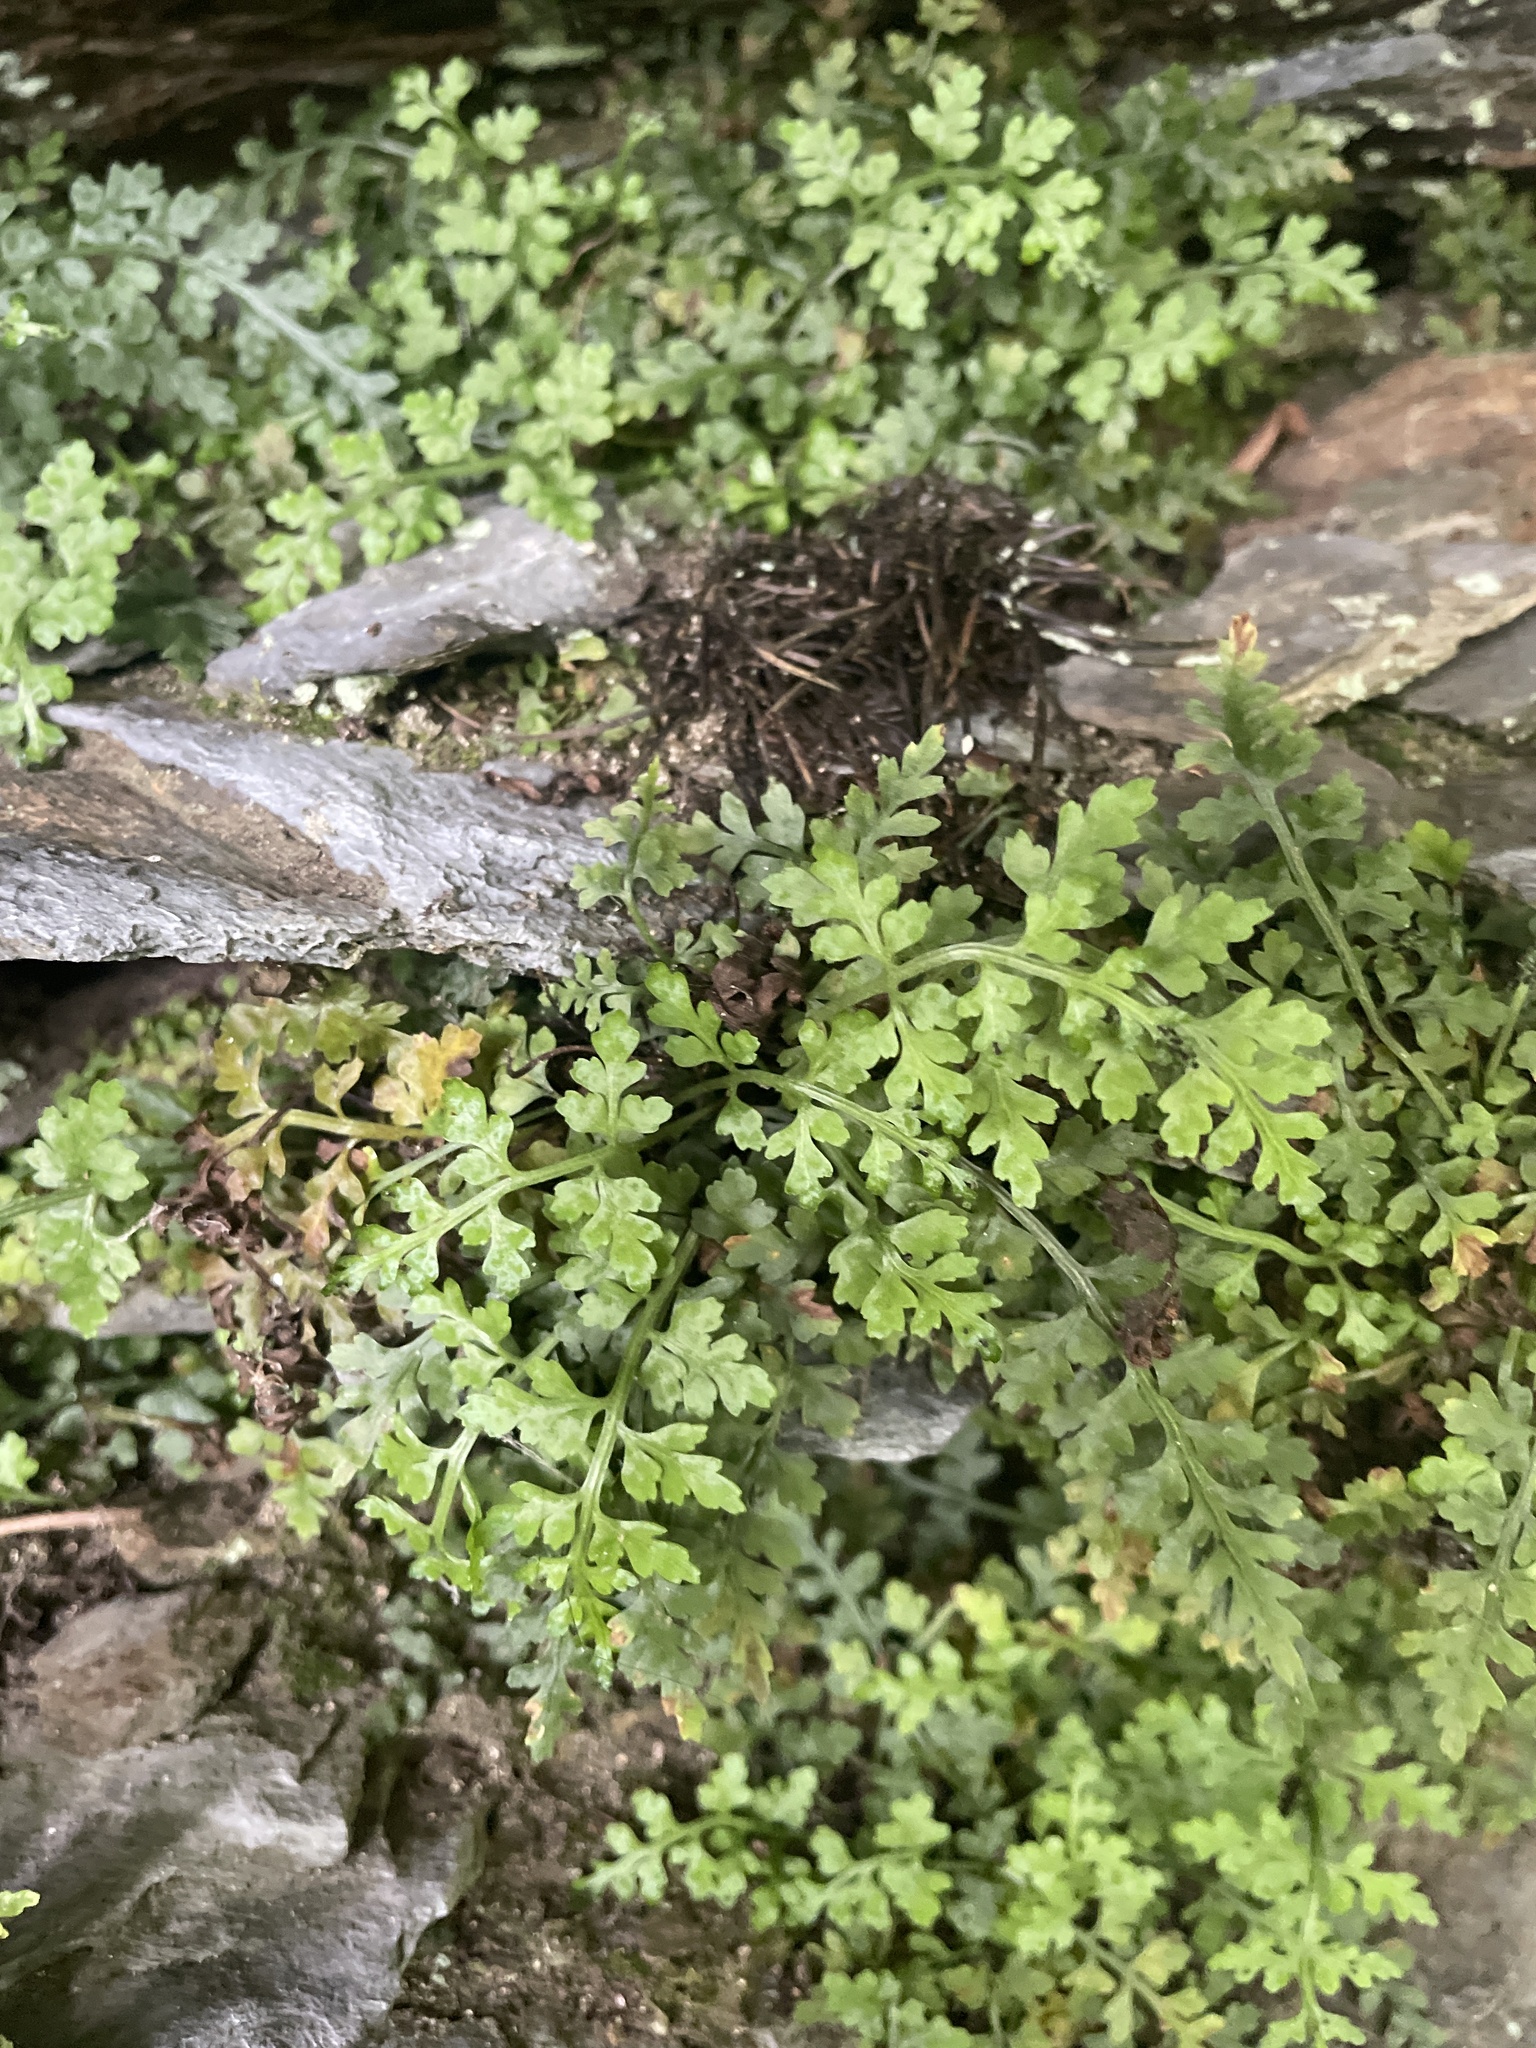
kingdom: Plantae
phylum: Tracheophyta
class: Polypodiopsida
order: Polypodiales
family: Aspleniaceae
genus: Asplenium
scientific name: Asplenium montanum
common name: Mountain spleenwort
